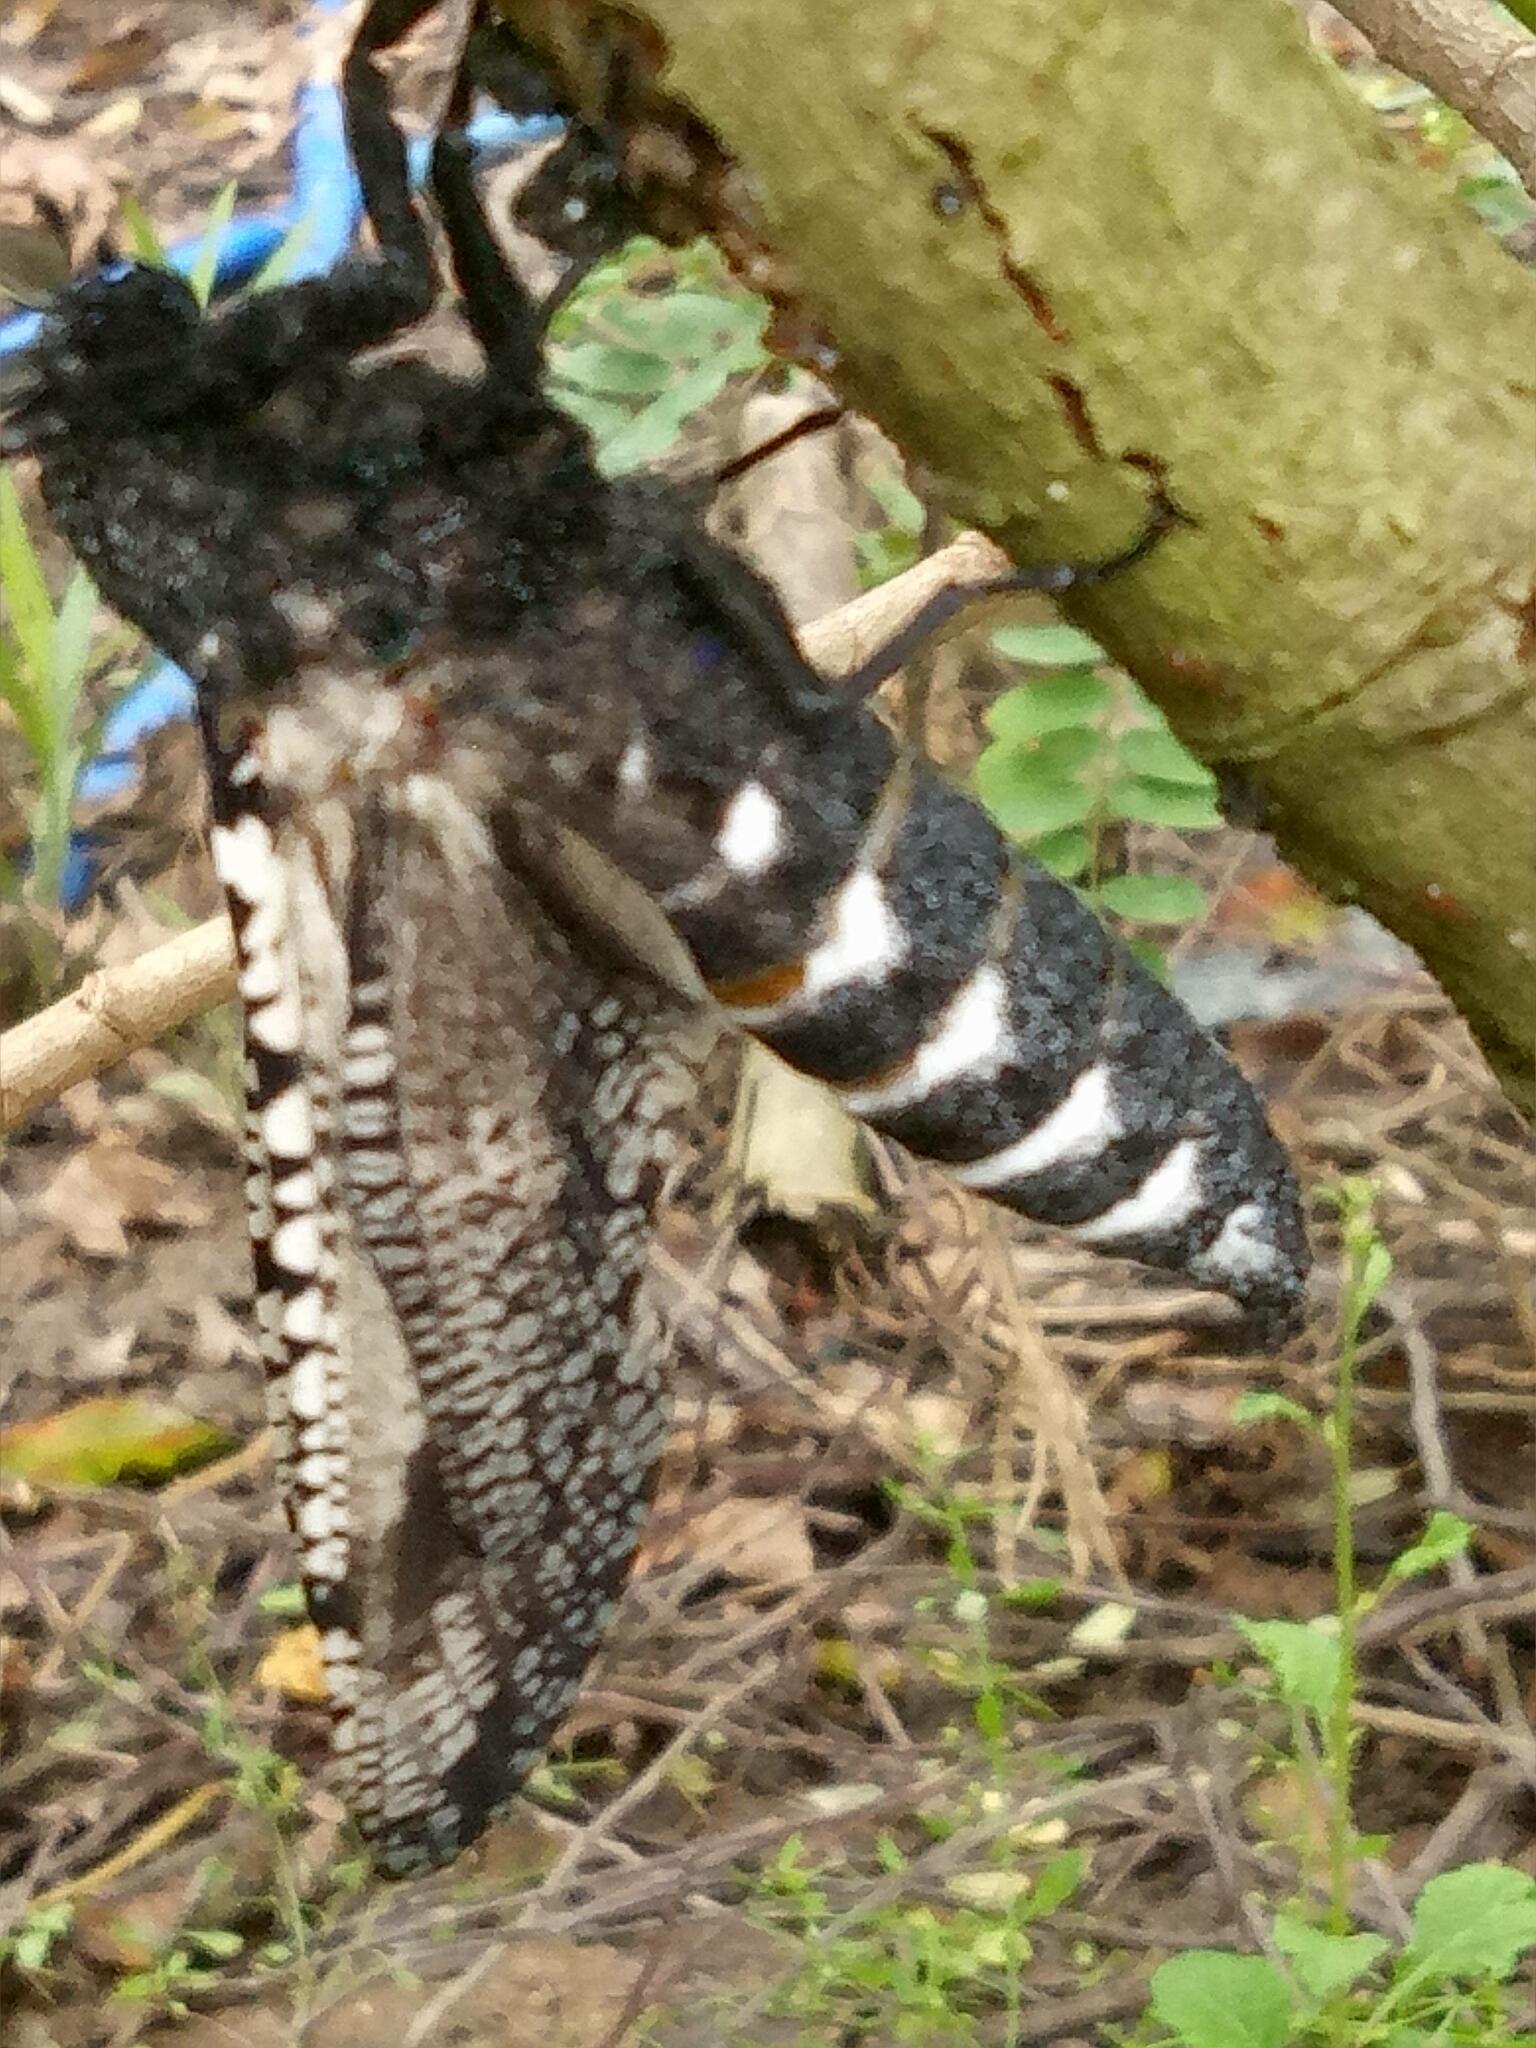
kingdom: Animalia
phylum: Arthropoda
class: Insecta
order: Lepidoptera
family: Cossidae
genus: Xyleutes
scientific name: Xyleutes strix
